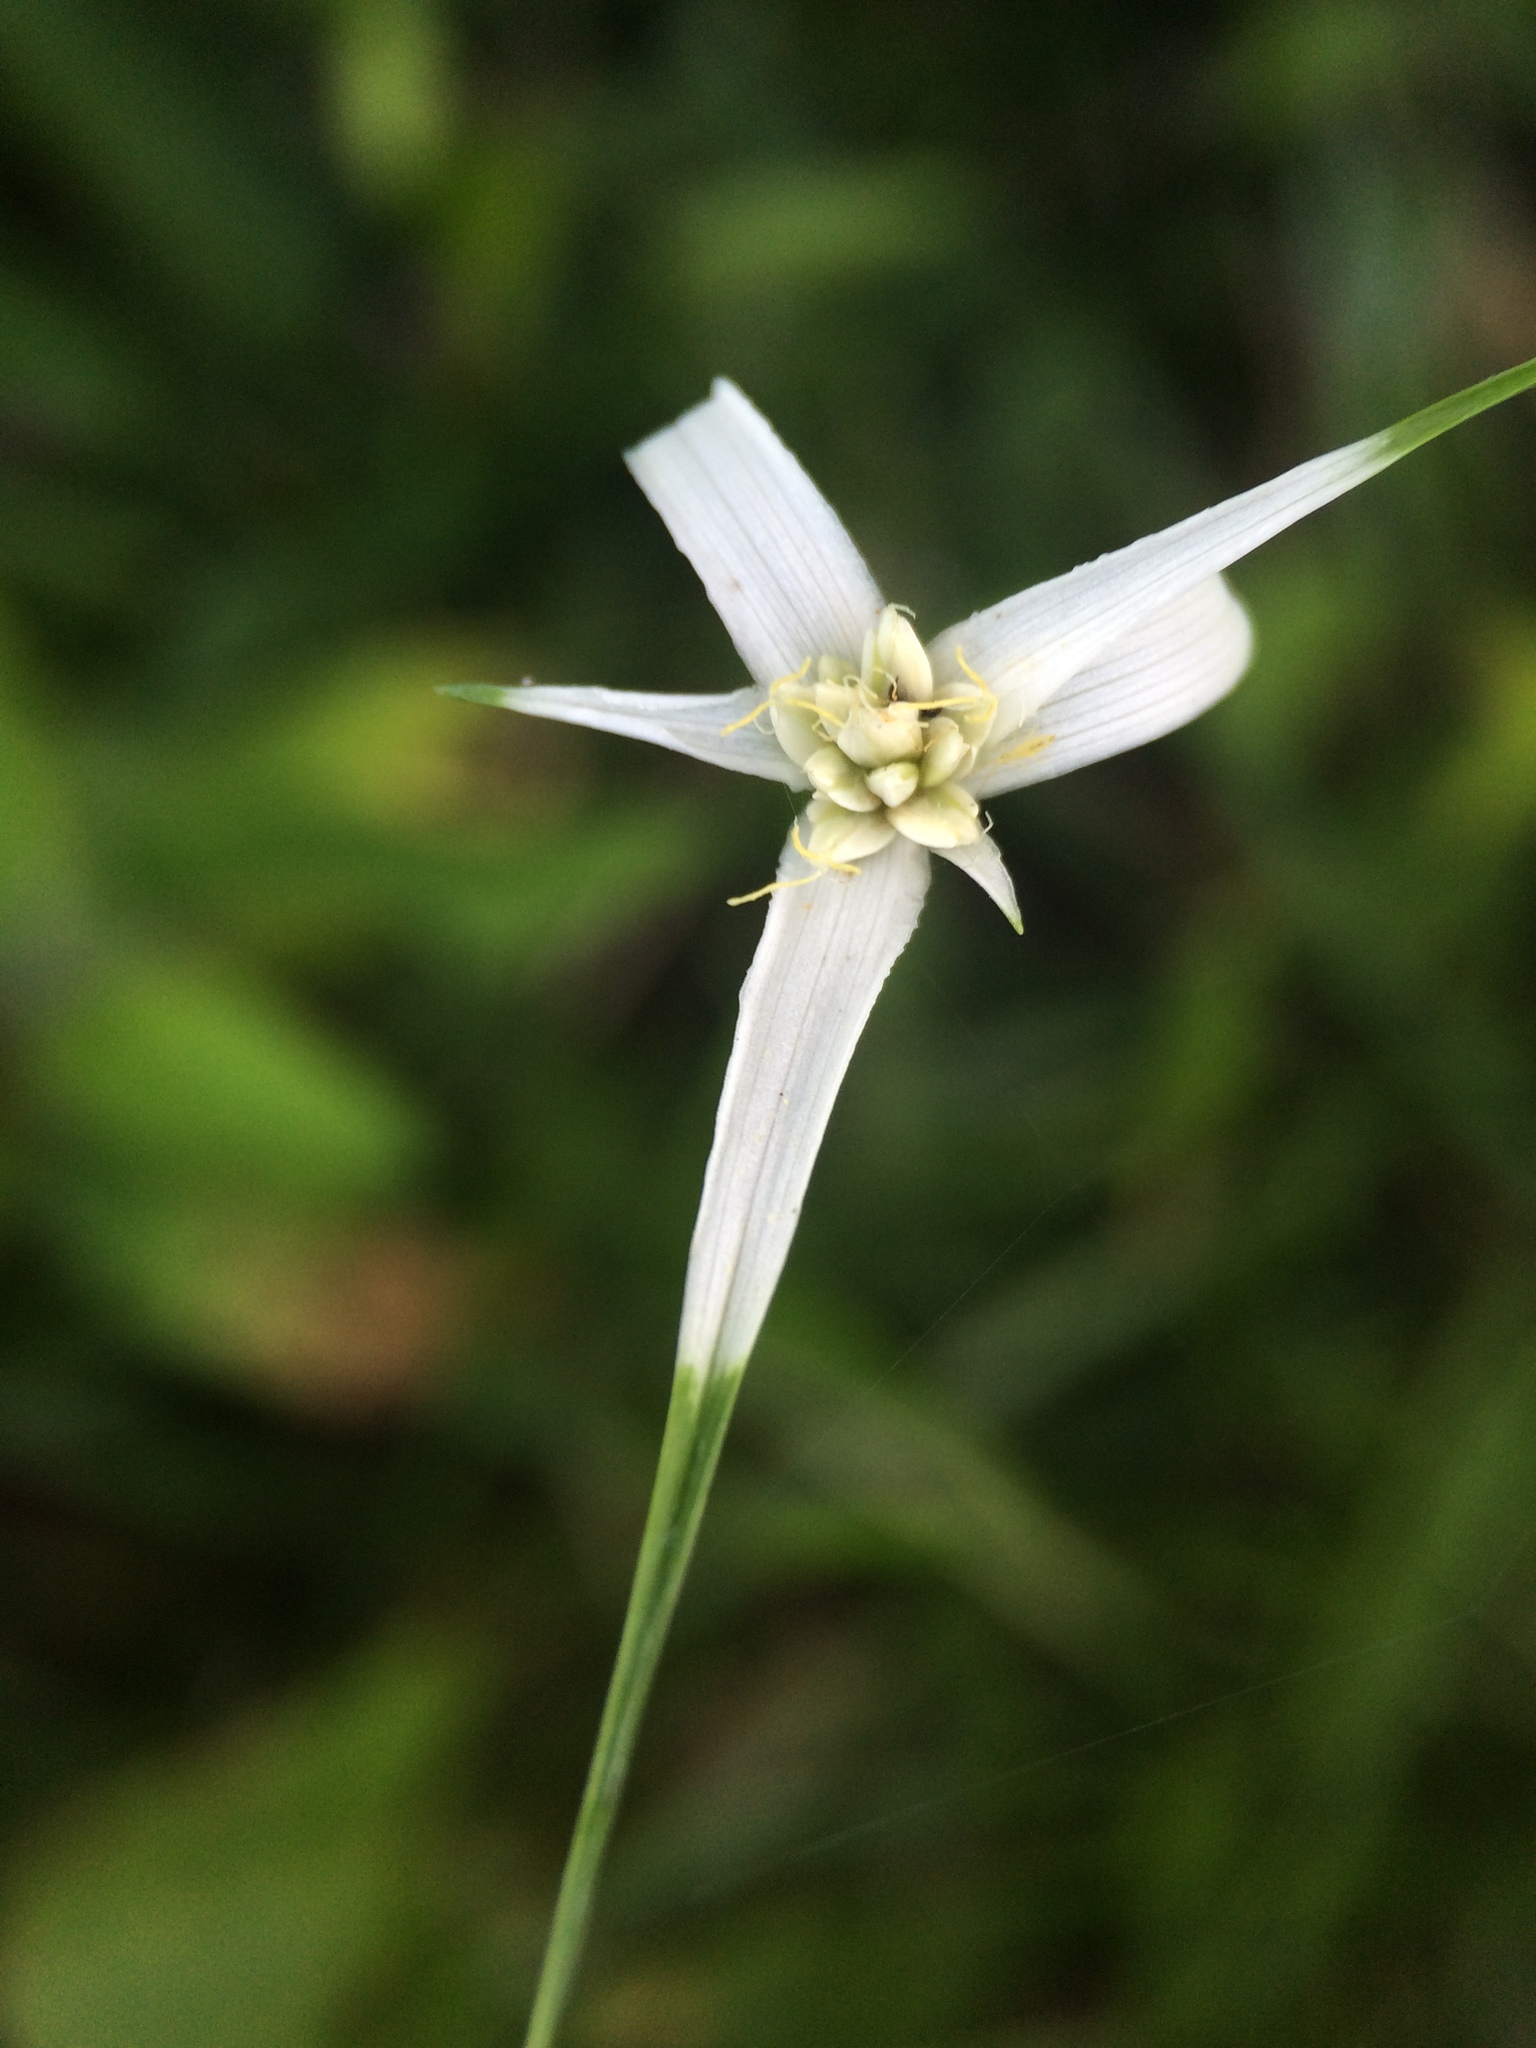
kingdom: Plantae
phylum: Tracheophyta
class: Liliopsida
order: Poales
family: Cyperaceae
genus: Rhynchospora
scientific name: Rhynchospora colorata
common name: Star sedge
